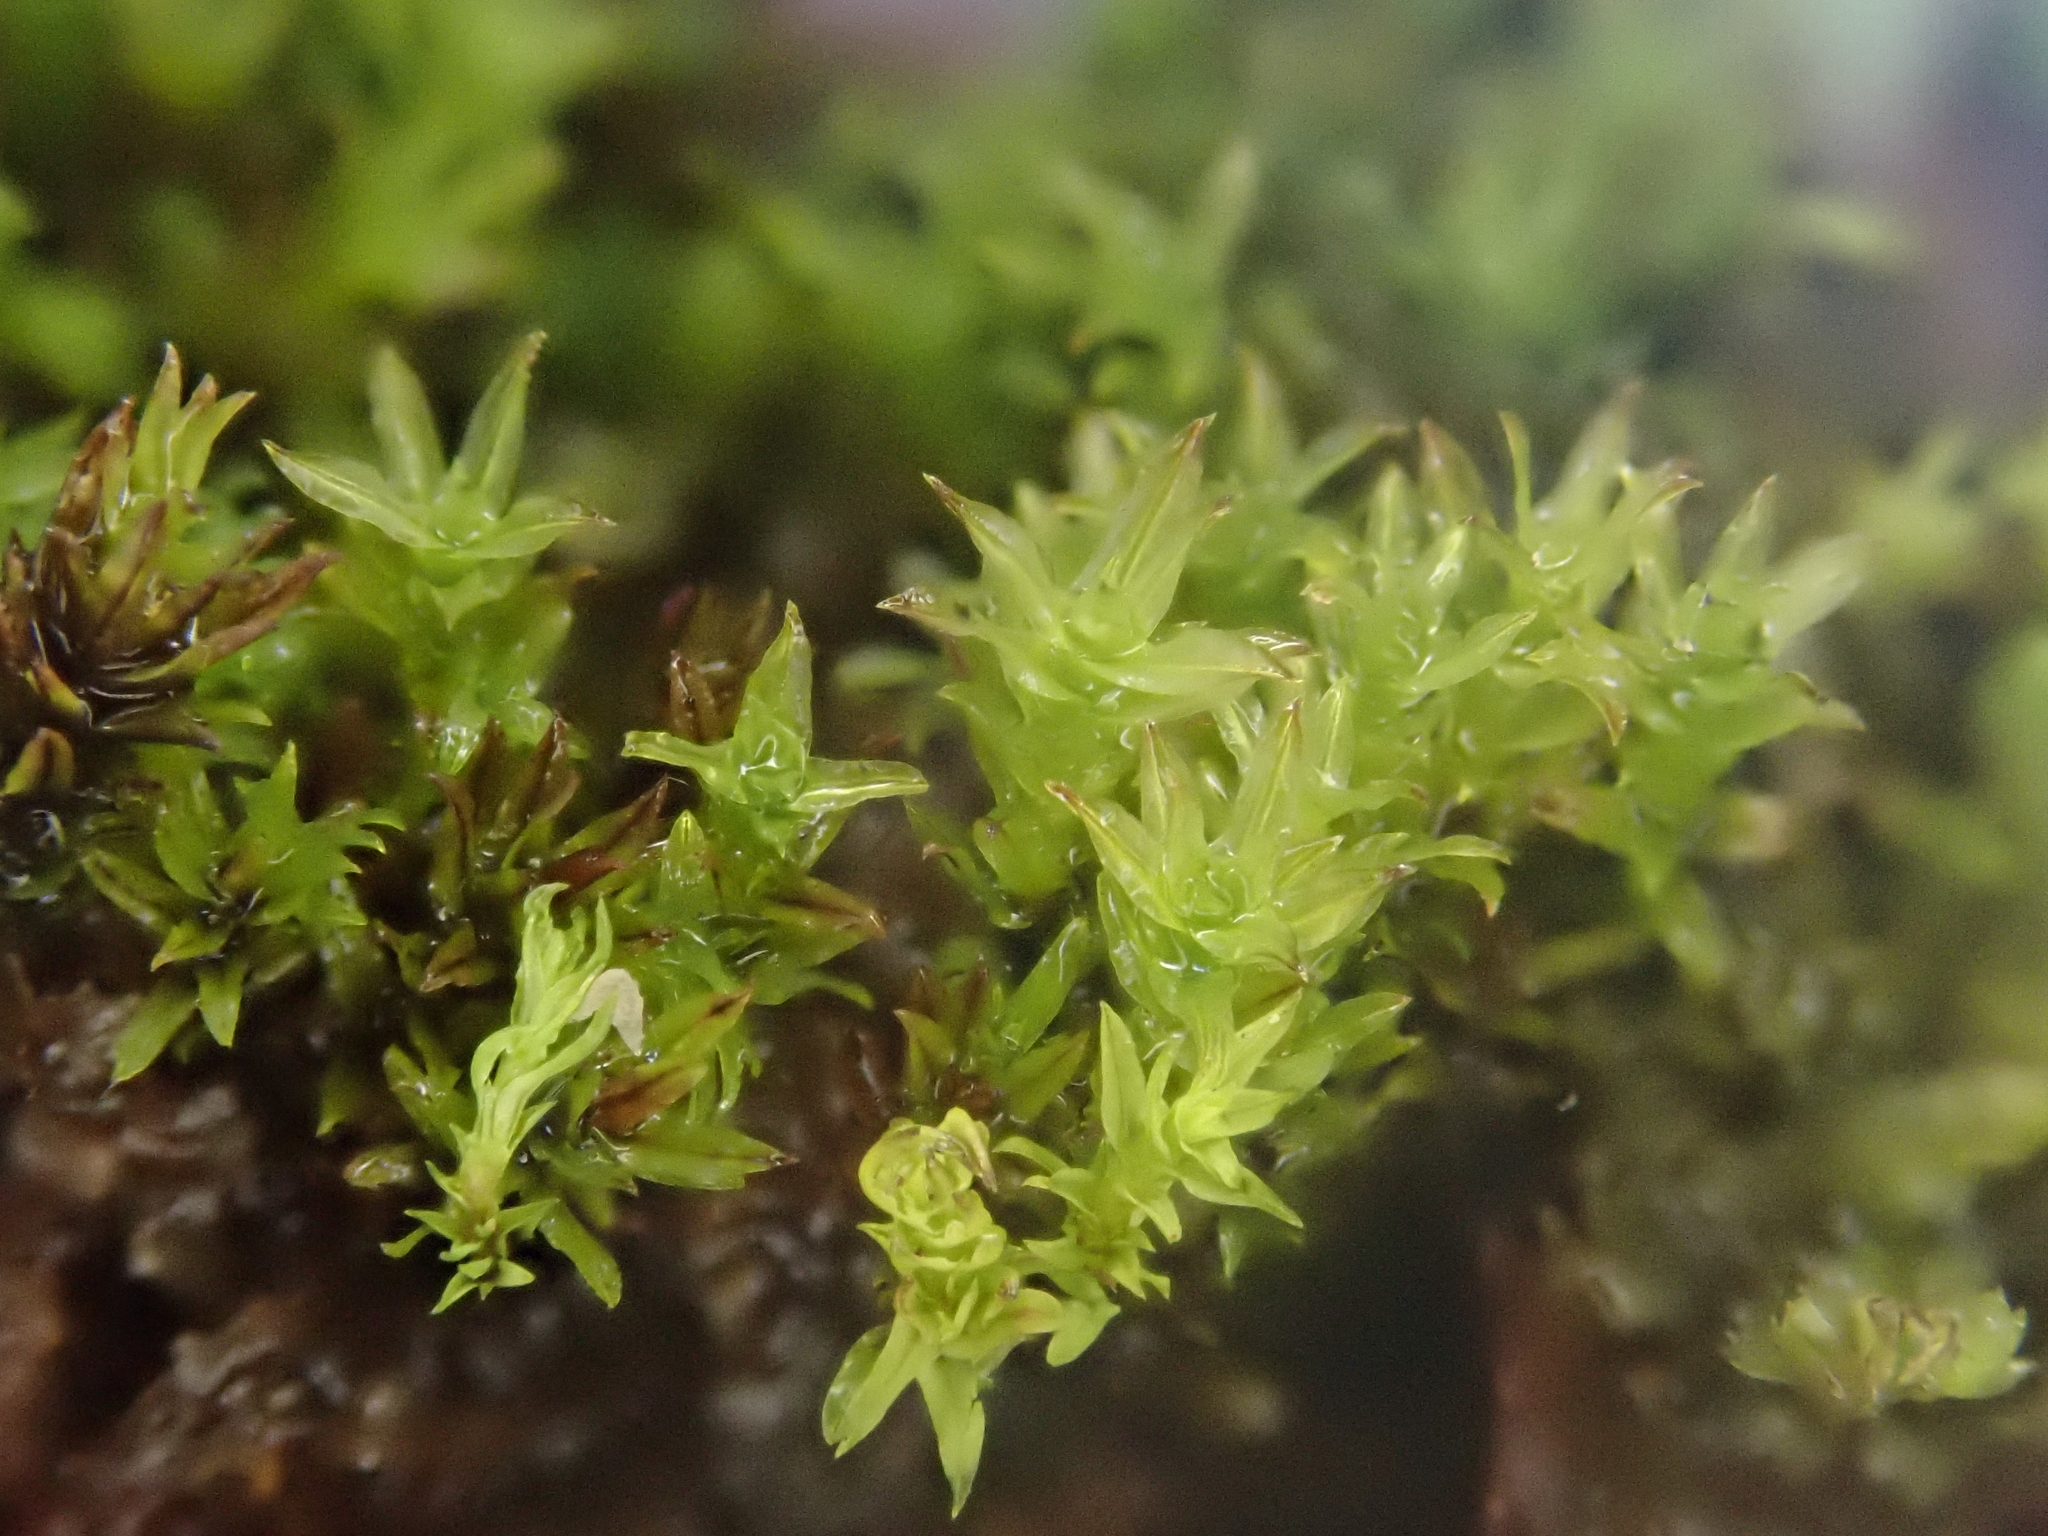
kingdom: Plantae
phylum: Bryophyta
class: Bryopsida
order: Pottiales
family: Pottiaceae
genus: Hydrogonium
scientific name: Hydrogonium croceum
